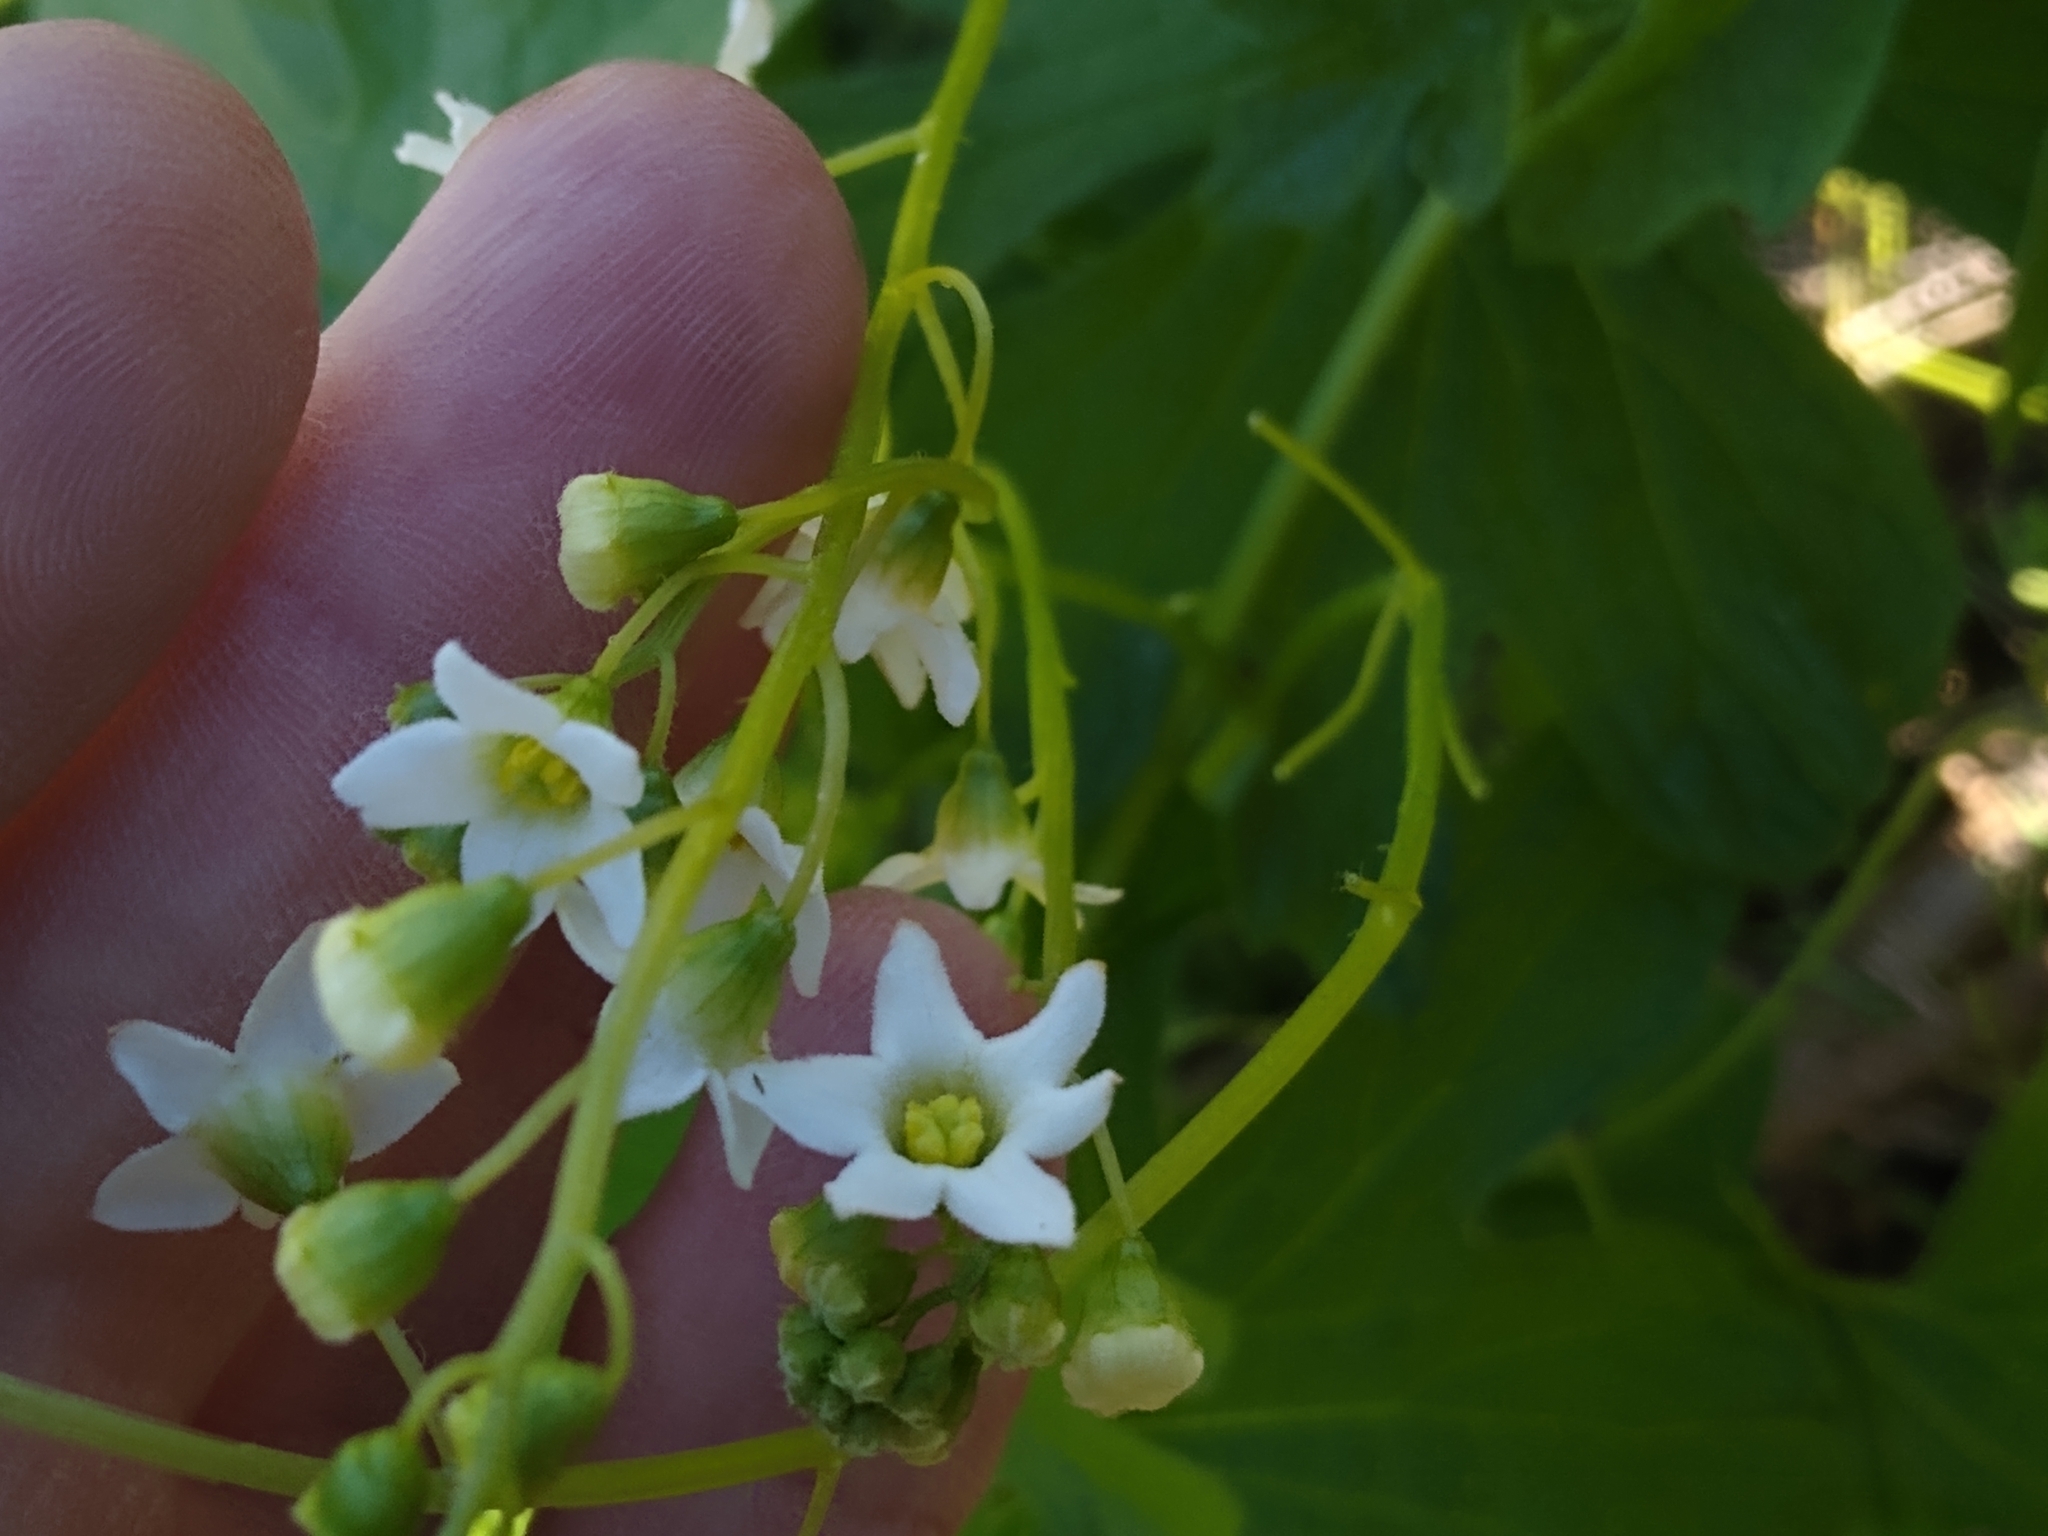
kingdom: Plantae
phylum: Tracheophyta
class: Magnoliopsida
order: Cucurbitales
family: Cucurbitaceae
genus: Marah
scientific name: Marah oregana
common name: Coastal manroot
